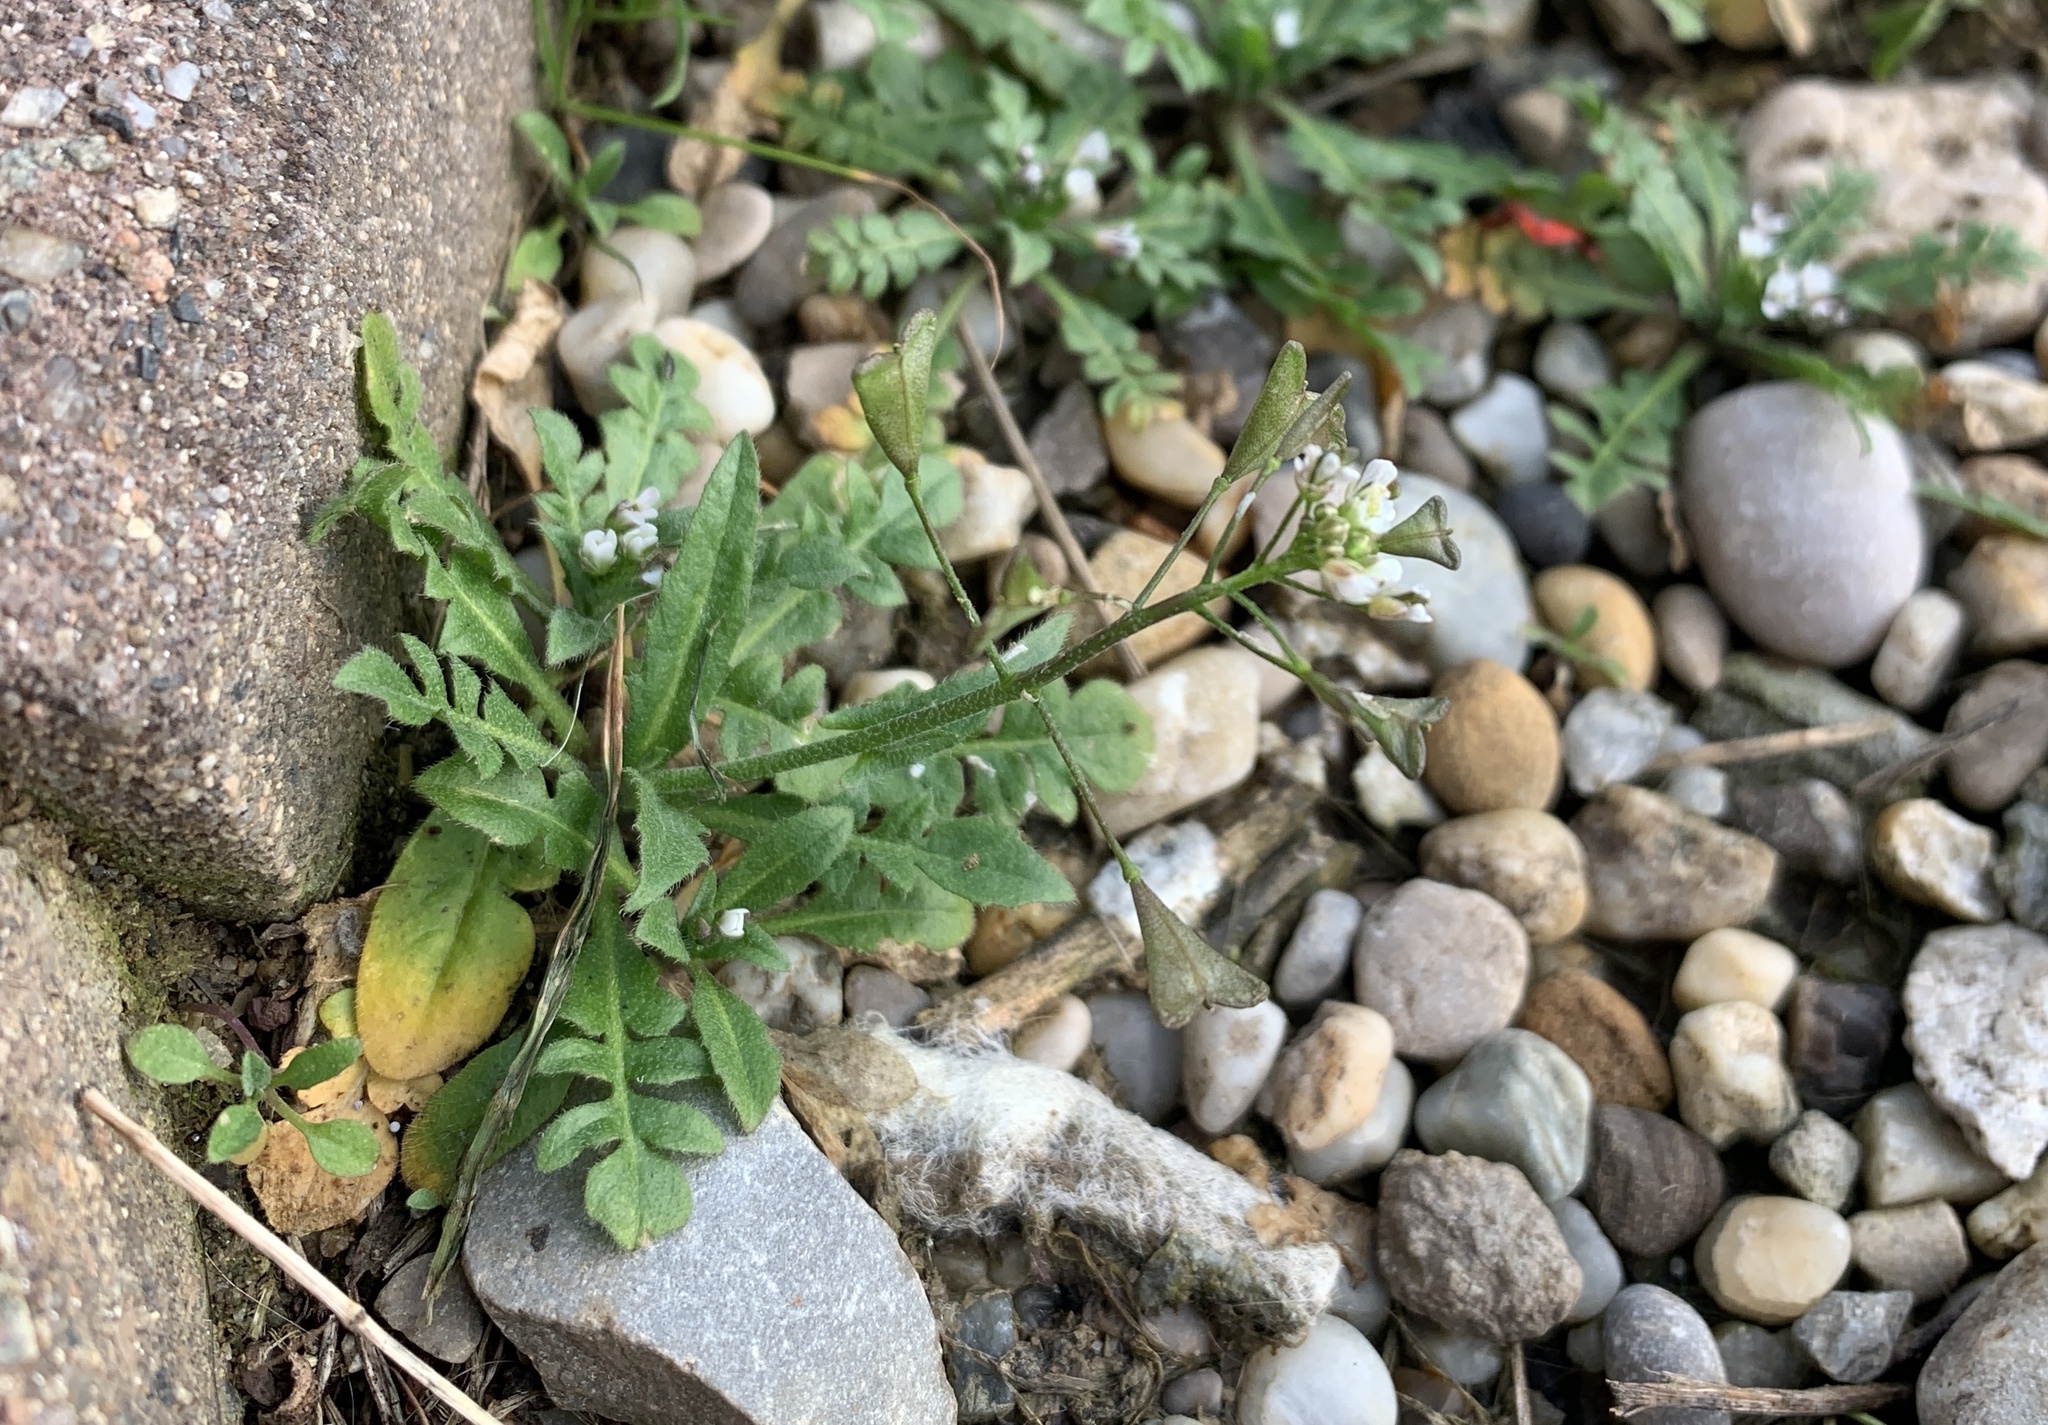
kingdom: Plantae
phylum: Tracheophyta
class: Magnoliopsida
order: Brassicales
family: Brassicaceae
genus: Capsella
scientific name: Capsella bursa-pastoris
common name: Shepherd's purse
